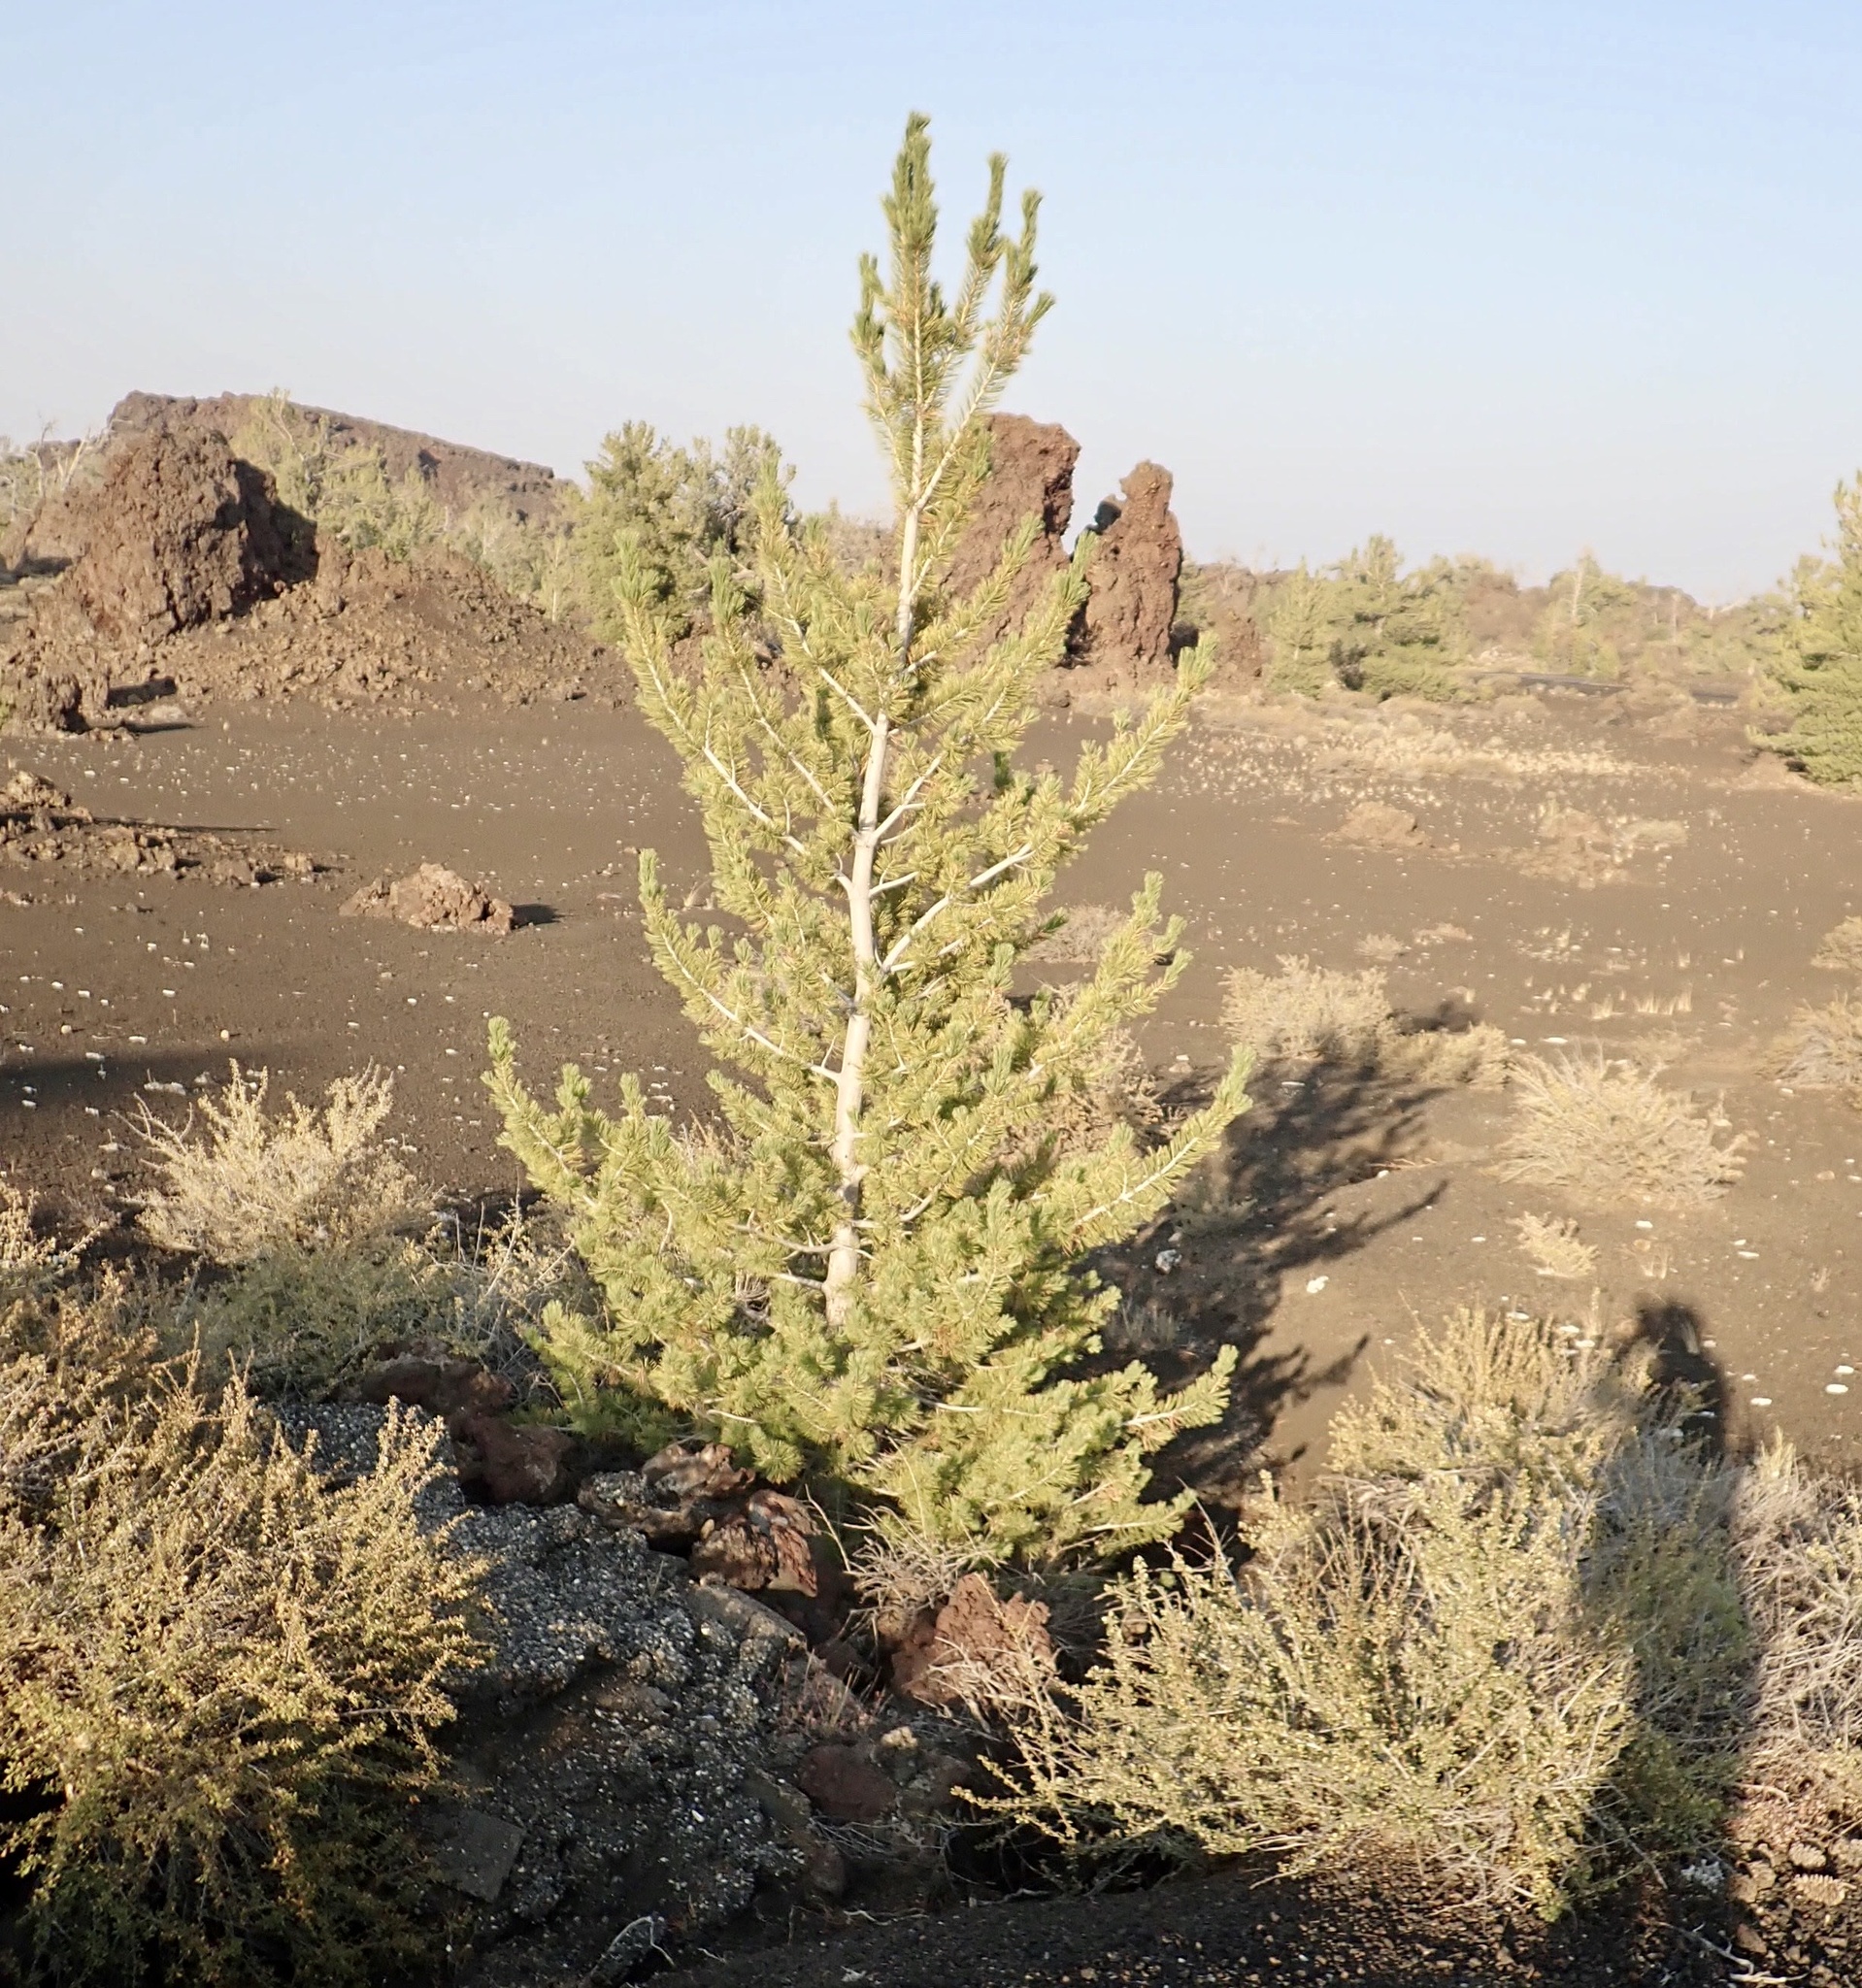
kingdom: Plantae
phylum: Tracheophyta
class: Pinopsida
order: Pinales
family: Pinaceae
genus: Pinus
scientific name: Pinus flexilis
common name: Limber pine
